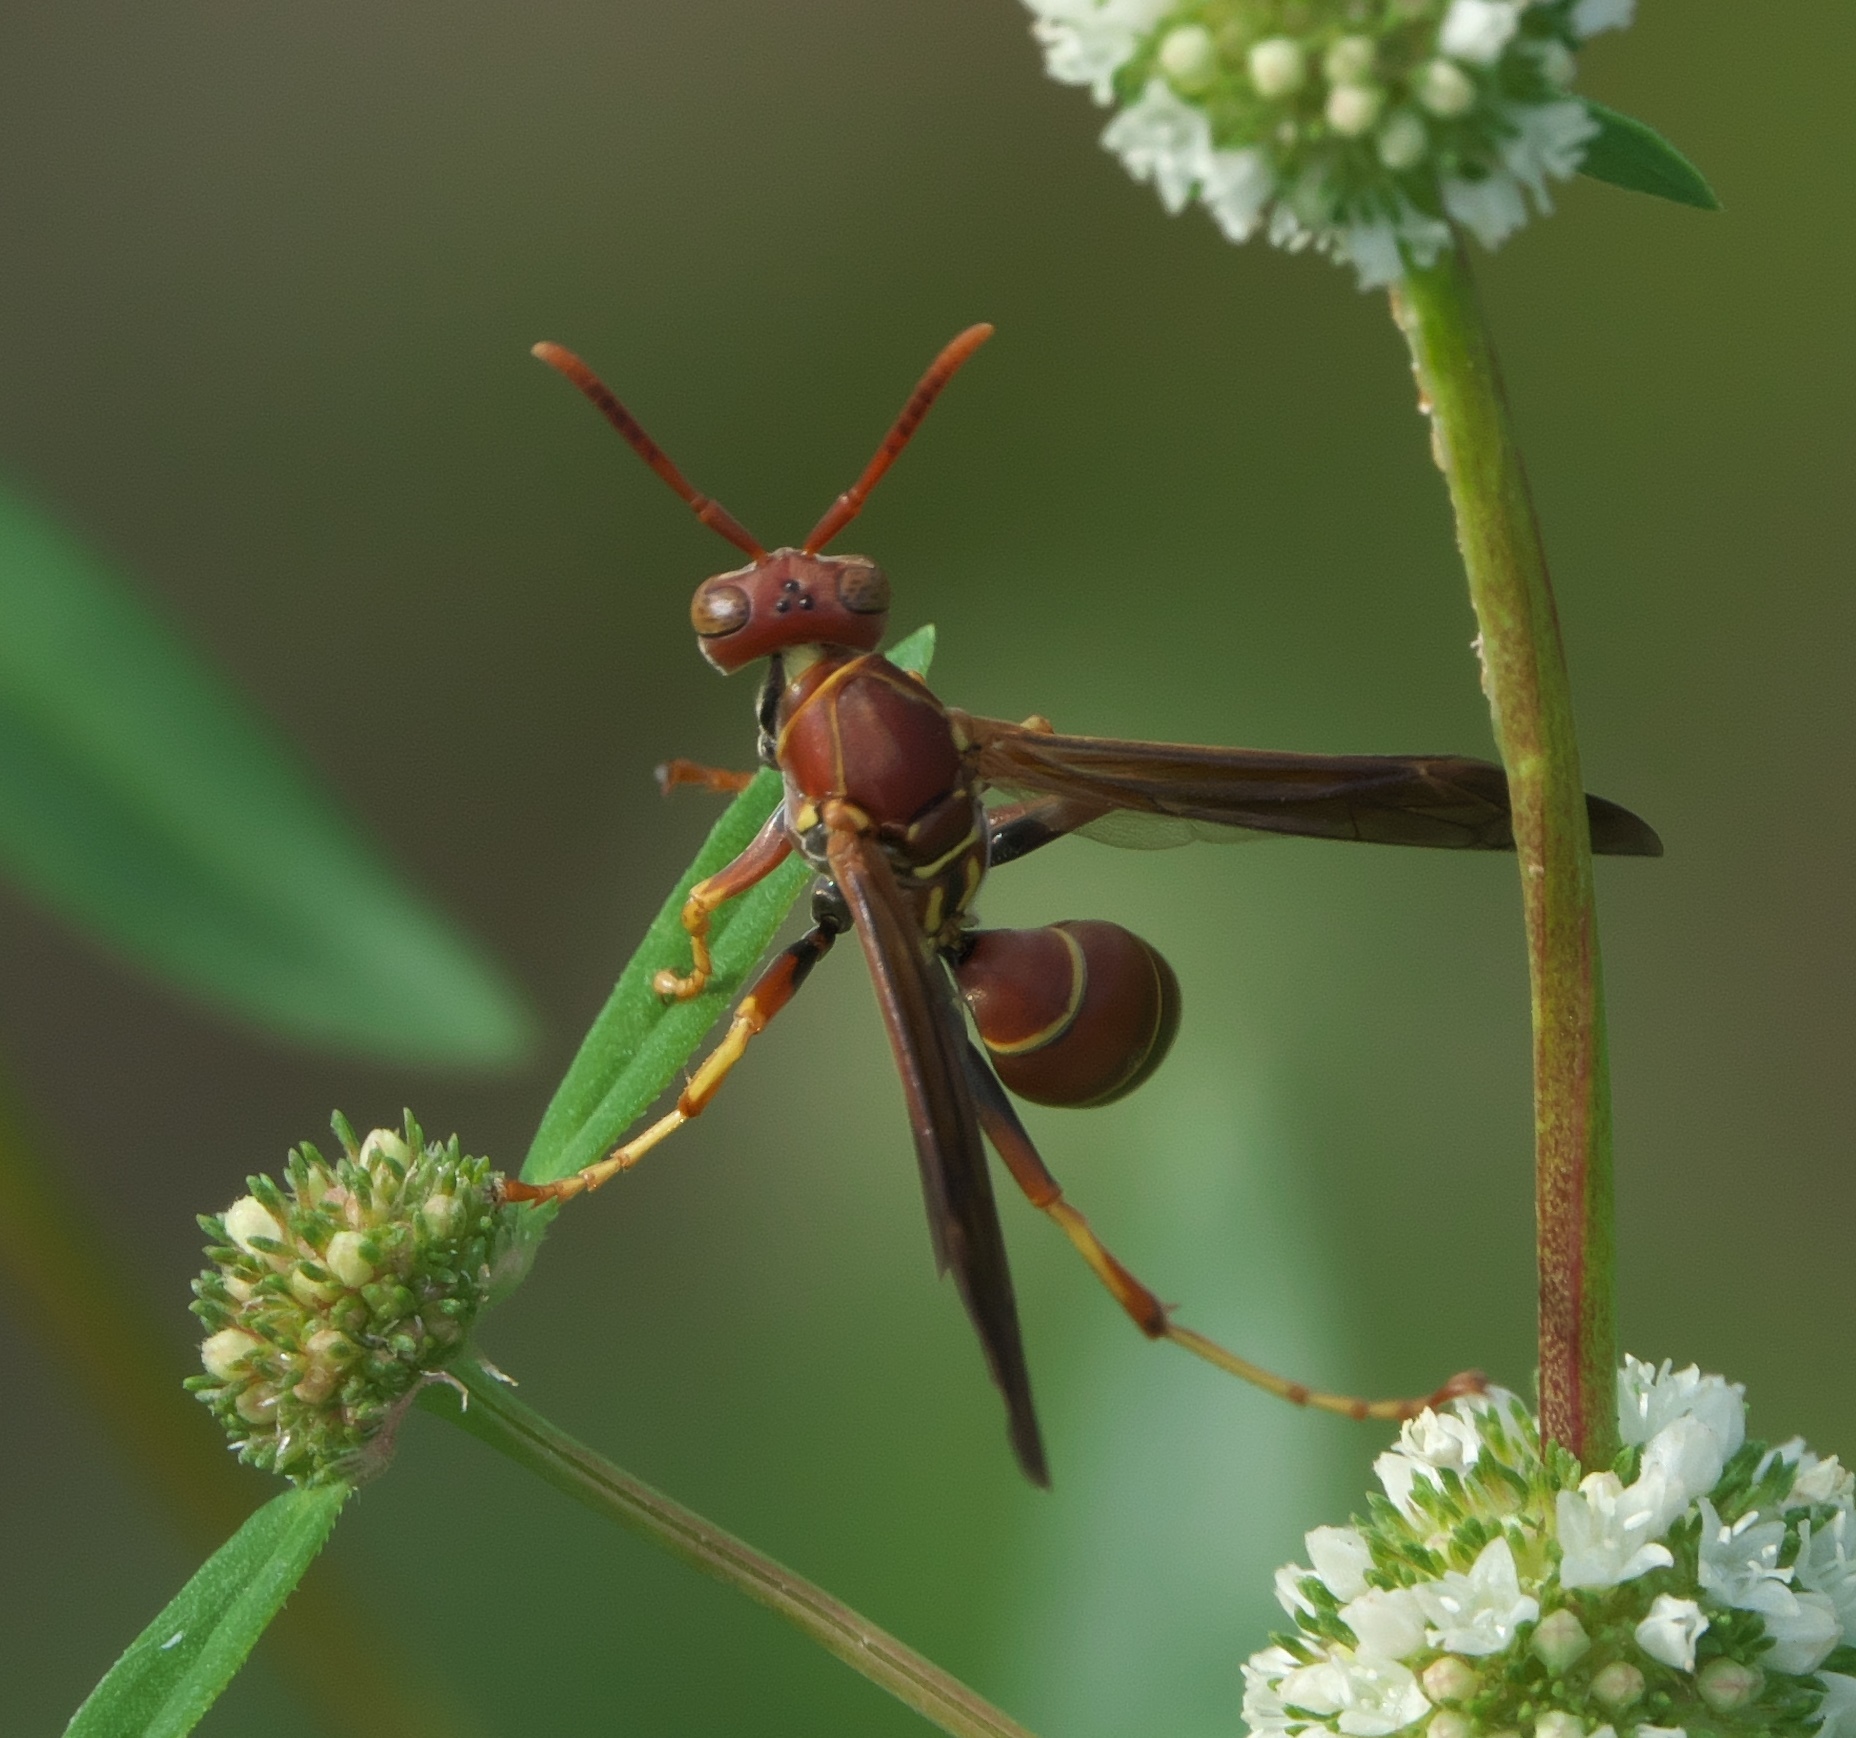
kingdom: Animalia
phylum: Arthropoda
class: Insecta
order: Hymenoptera
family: Eumenidae
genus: Polistes
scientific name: Polistes dorsalis
